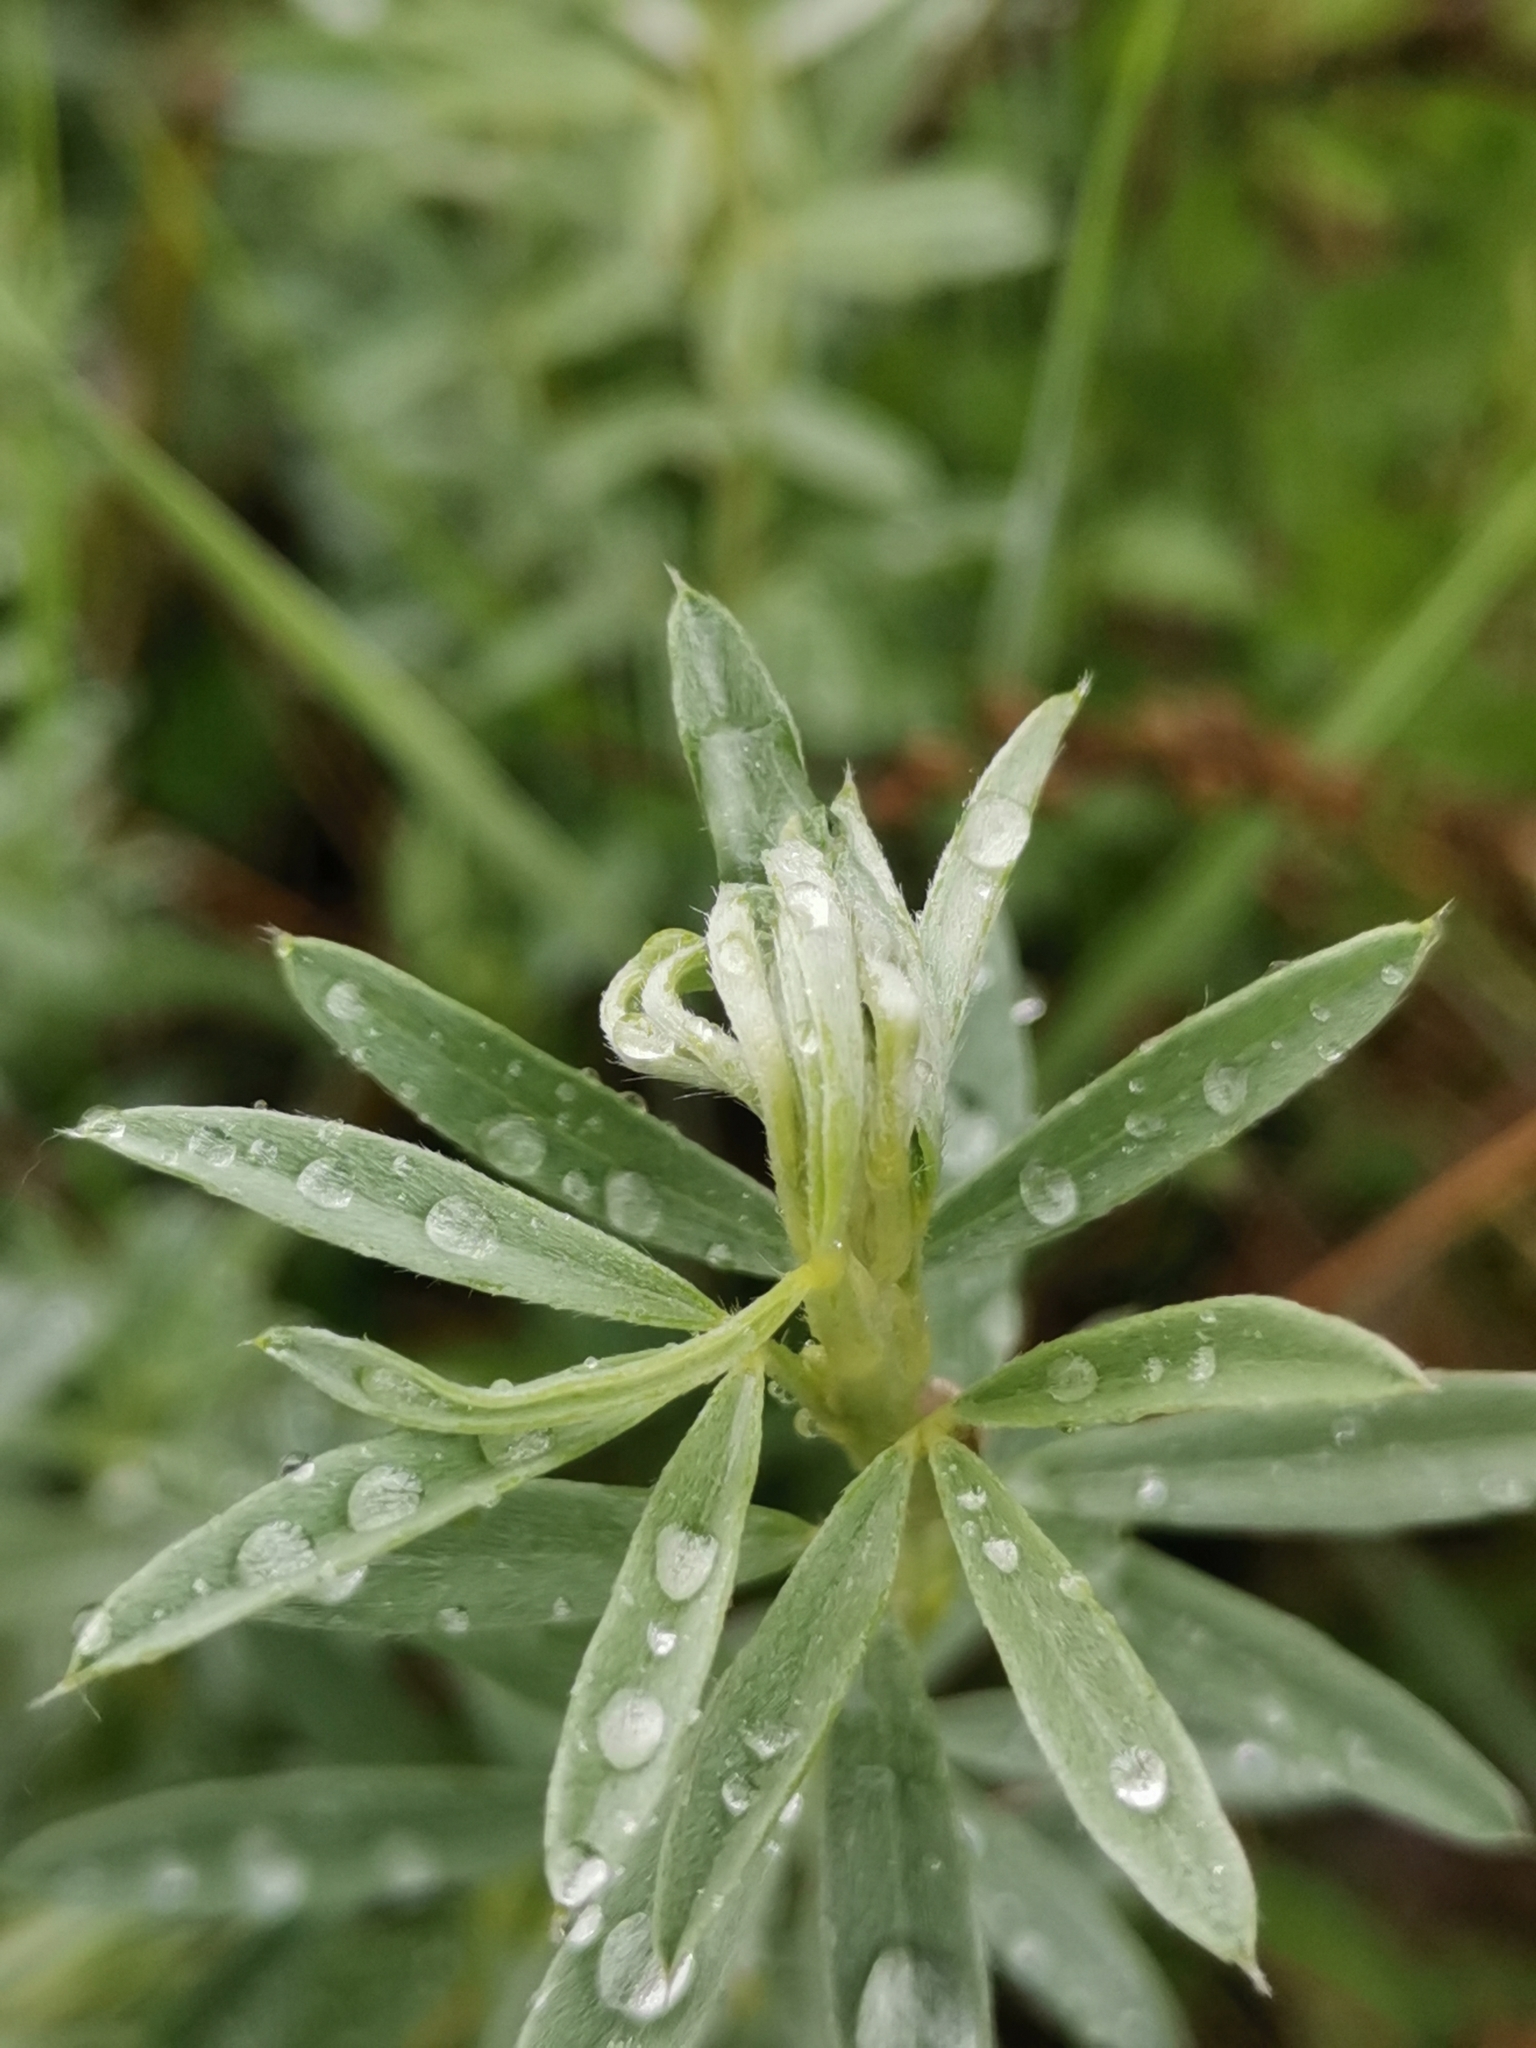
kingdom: Plantae
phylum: Tracheophyta
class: Magnoliopsida
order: Fabales
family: Fabaceae
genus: Chamaecytisus
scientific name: Chamaecytisus austriacus
